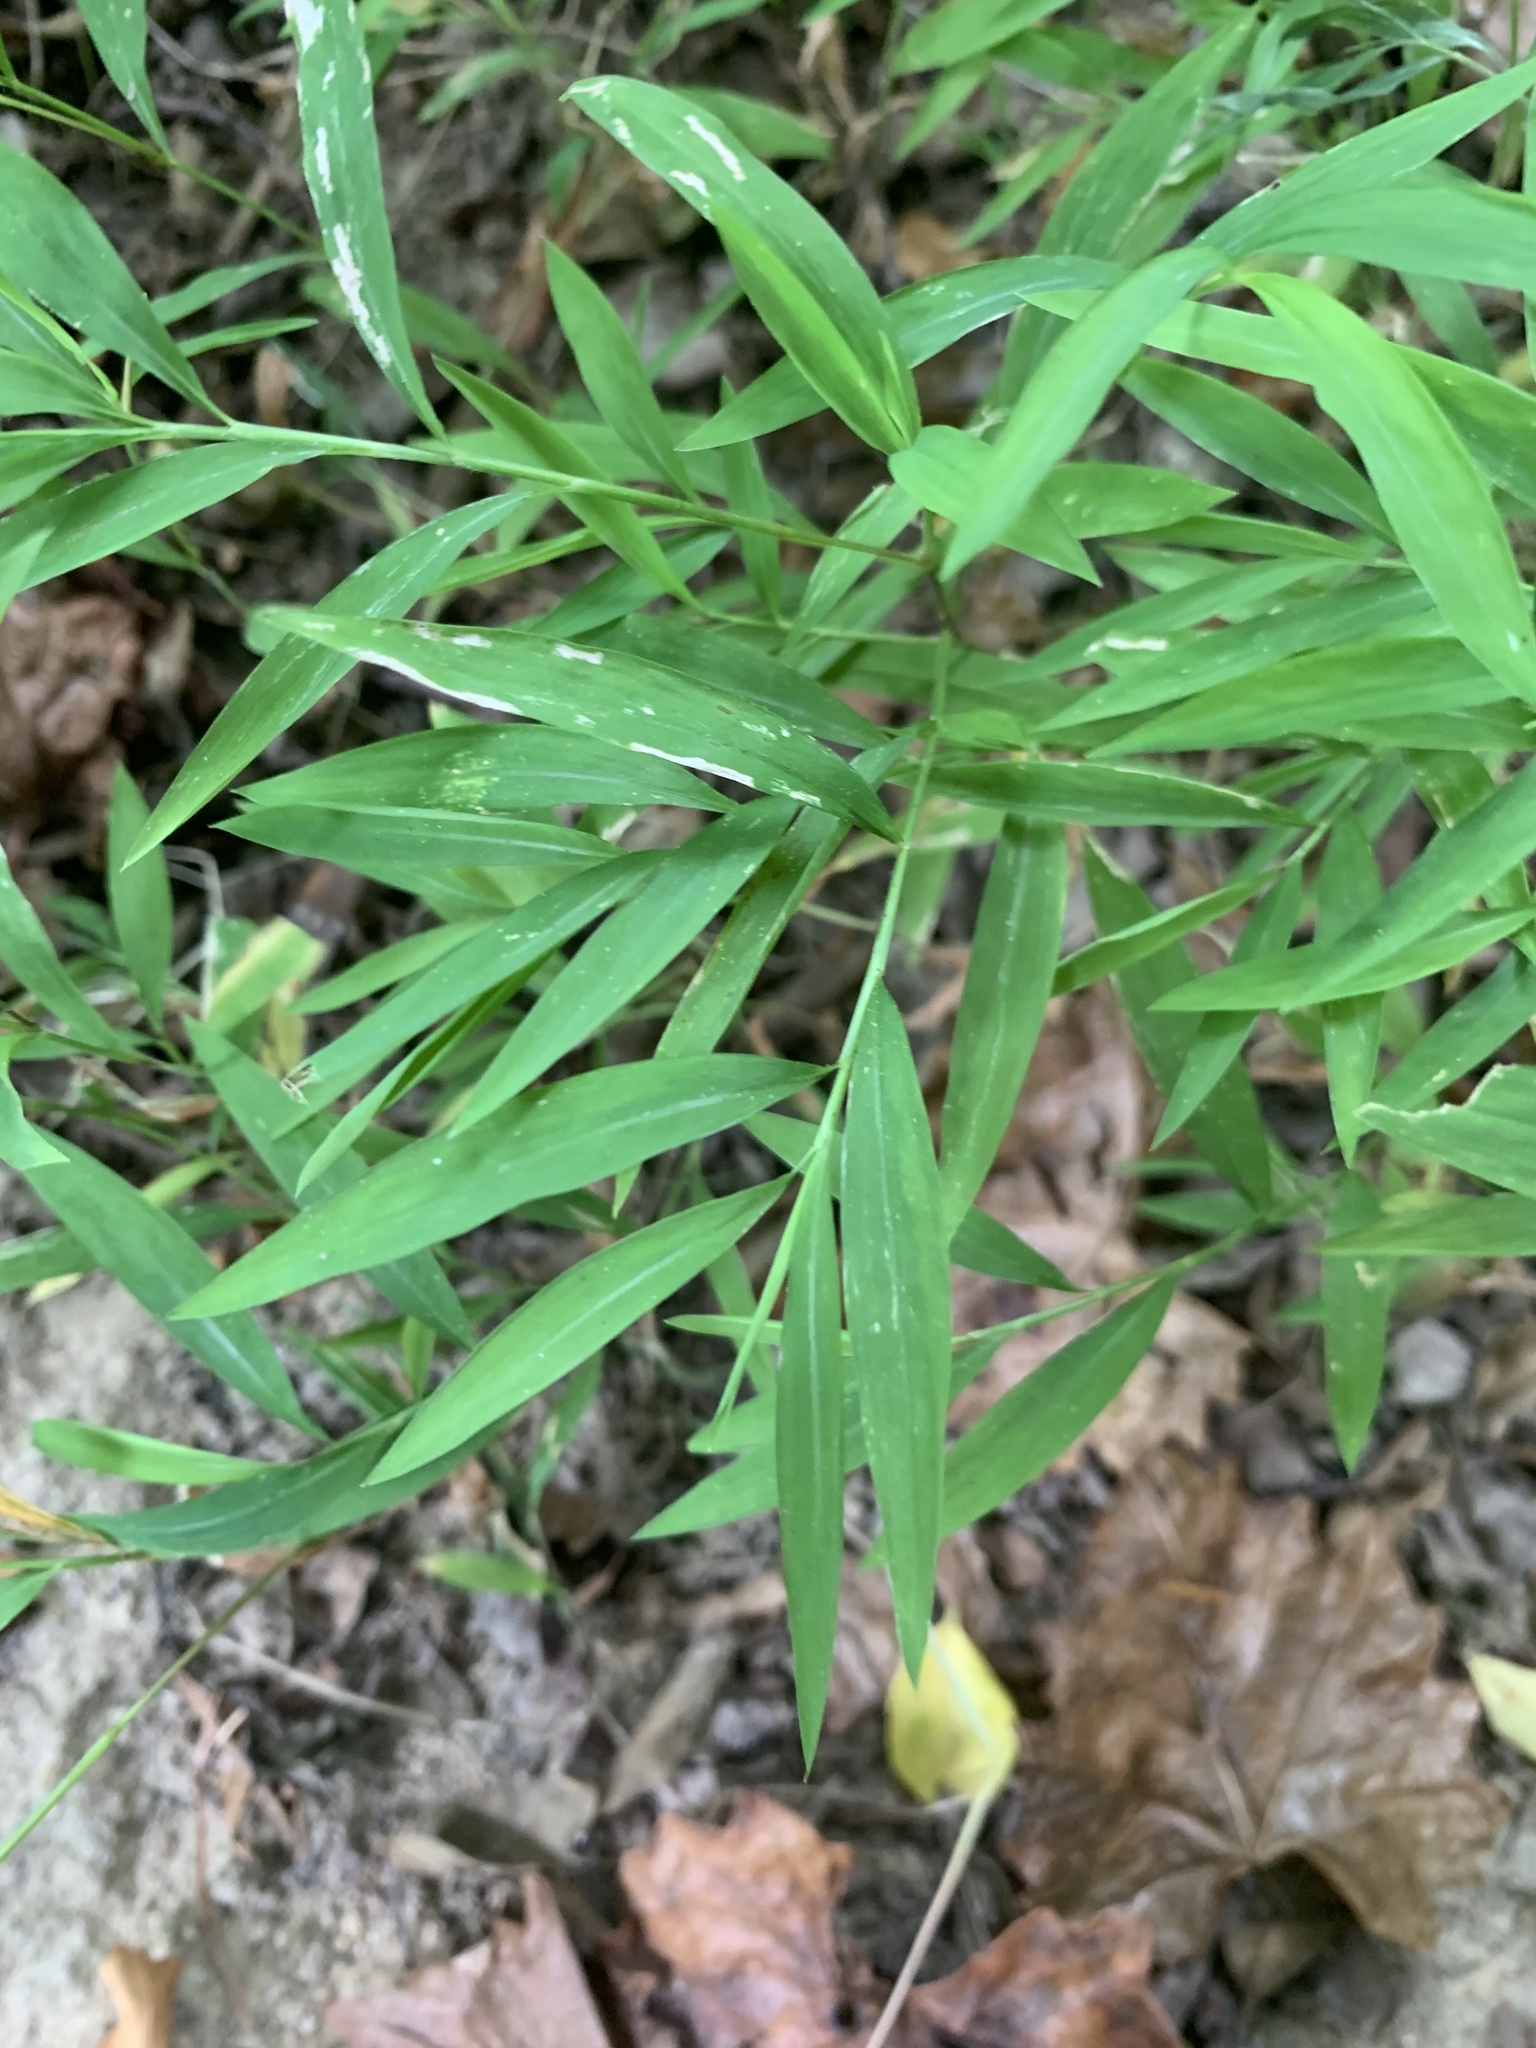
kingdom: Plantae
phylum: Tracheophyta
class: Liliopsida
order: Poales
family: Poaceae
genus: Microstegium
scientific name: Microstegium vimineum
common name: Japanese stiltgrass
